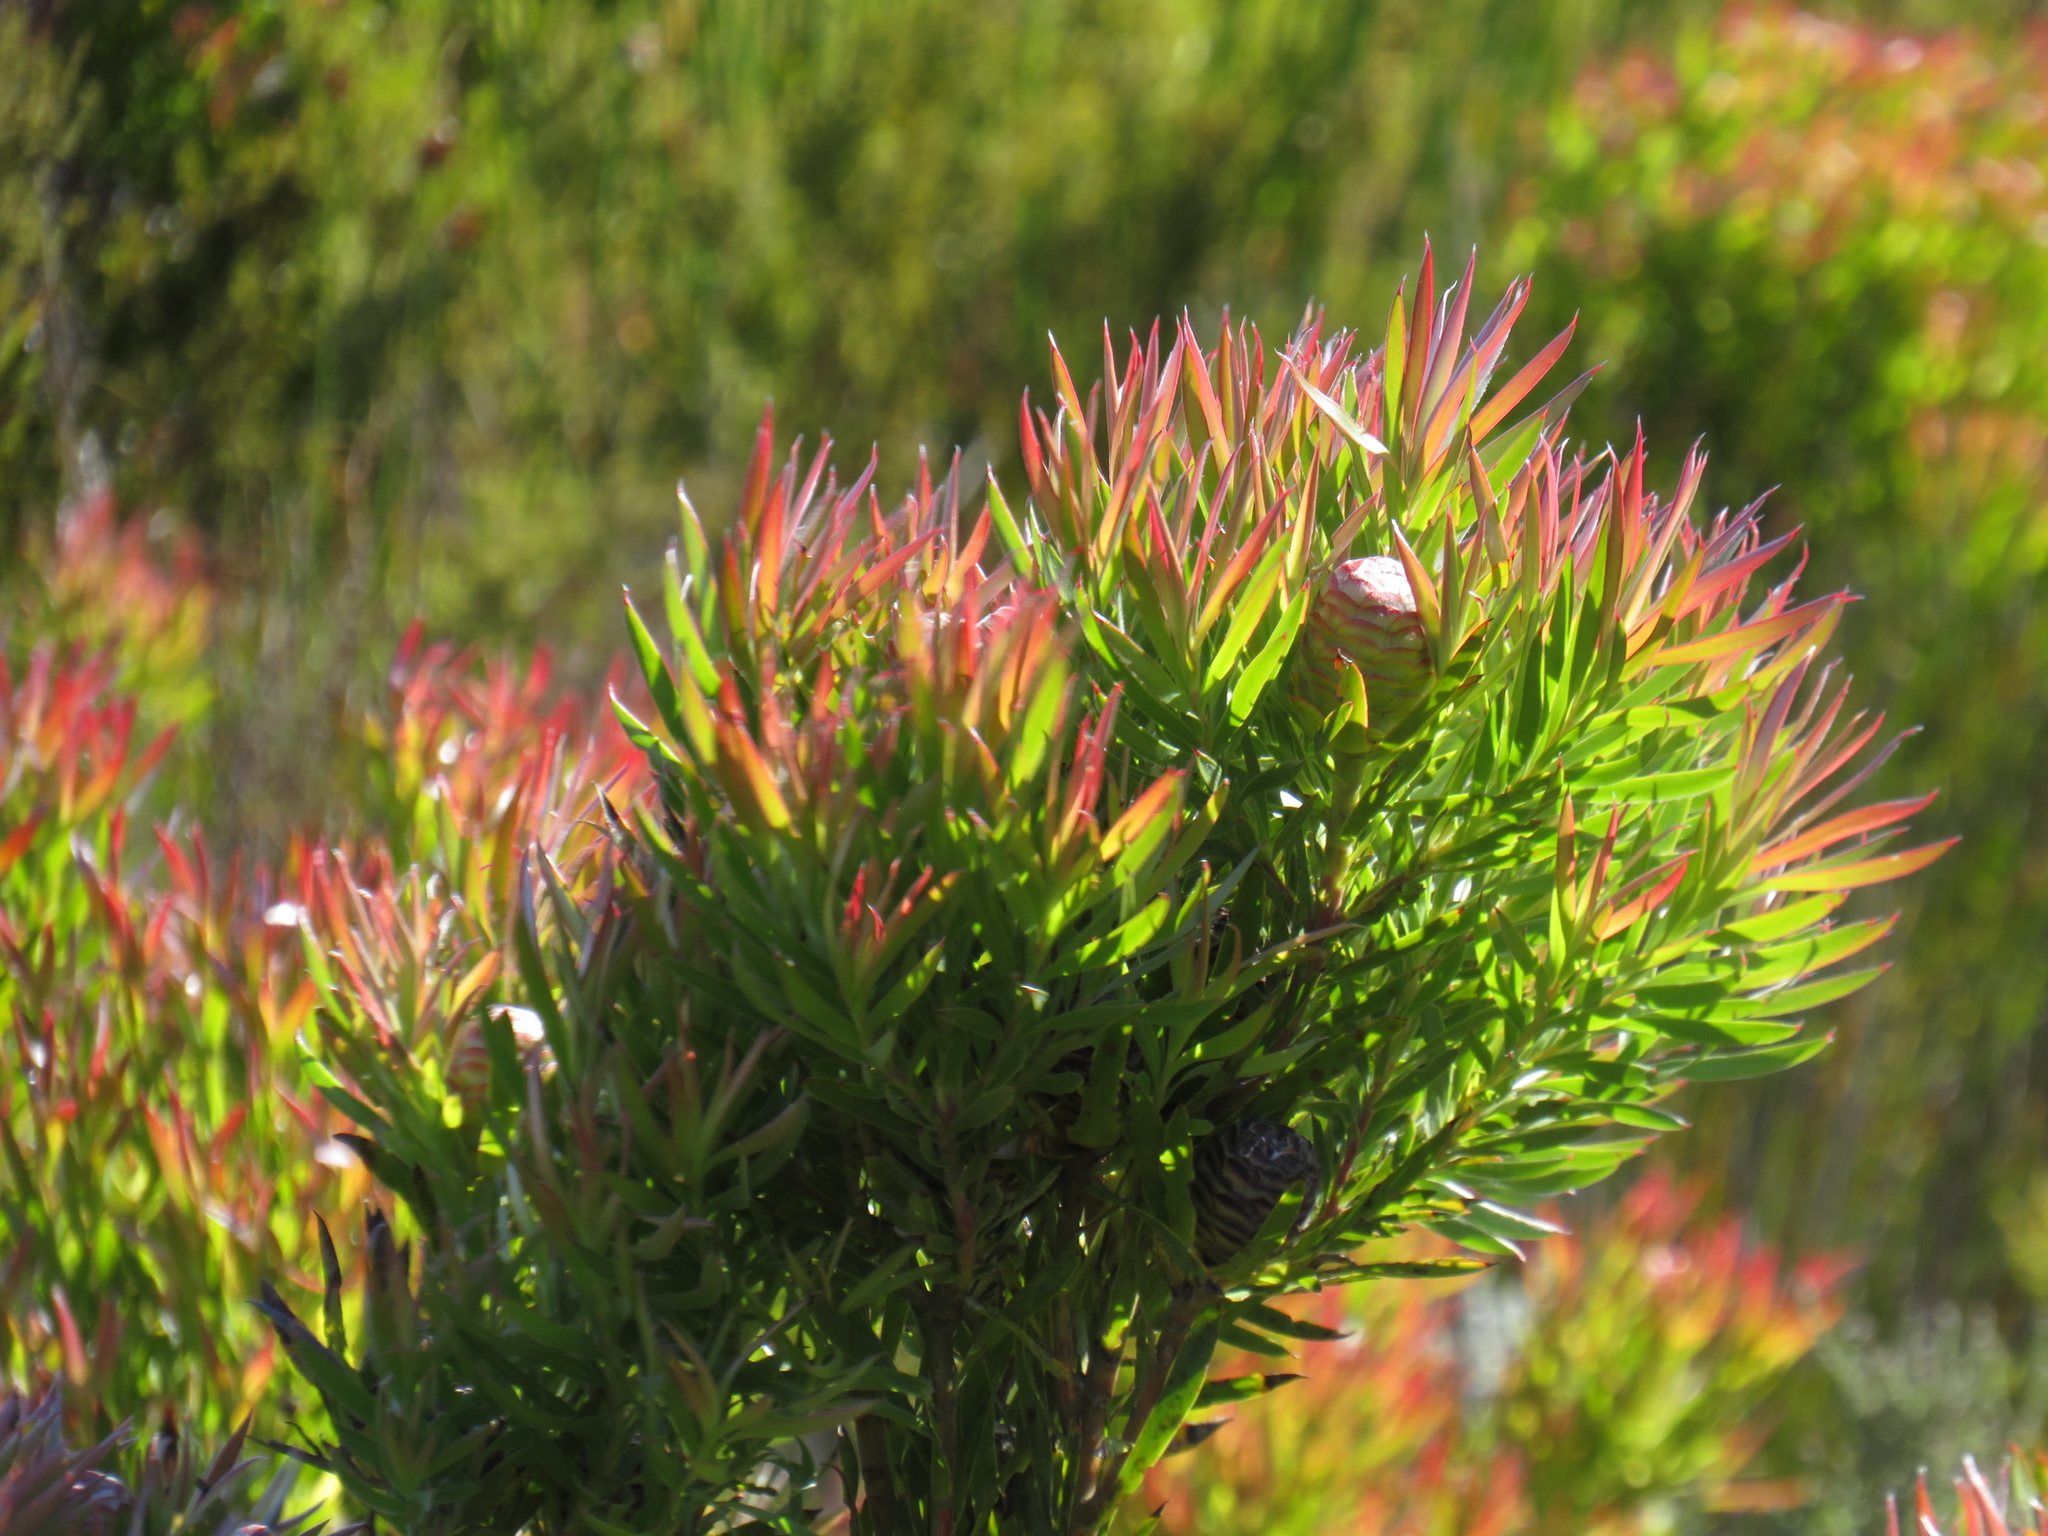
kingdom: Plantae
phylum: Tracheophyta
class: Magnoliopsida
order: Proteales
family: Proteaceae
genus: Leucadendron
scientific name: Leucadendron xanthoconus
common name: Sickle-leaf conebush
